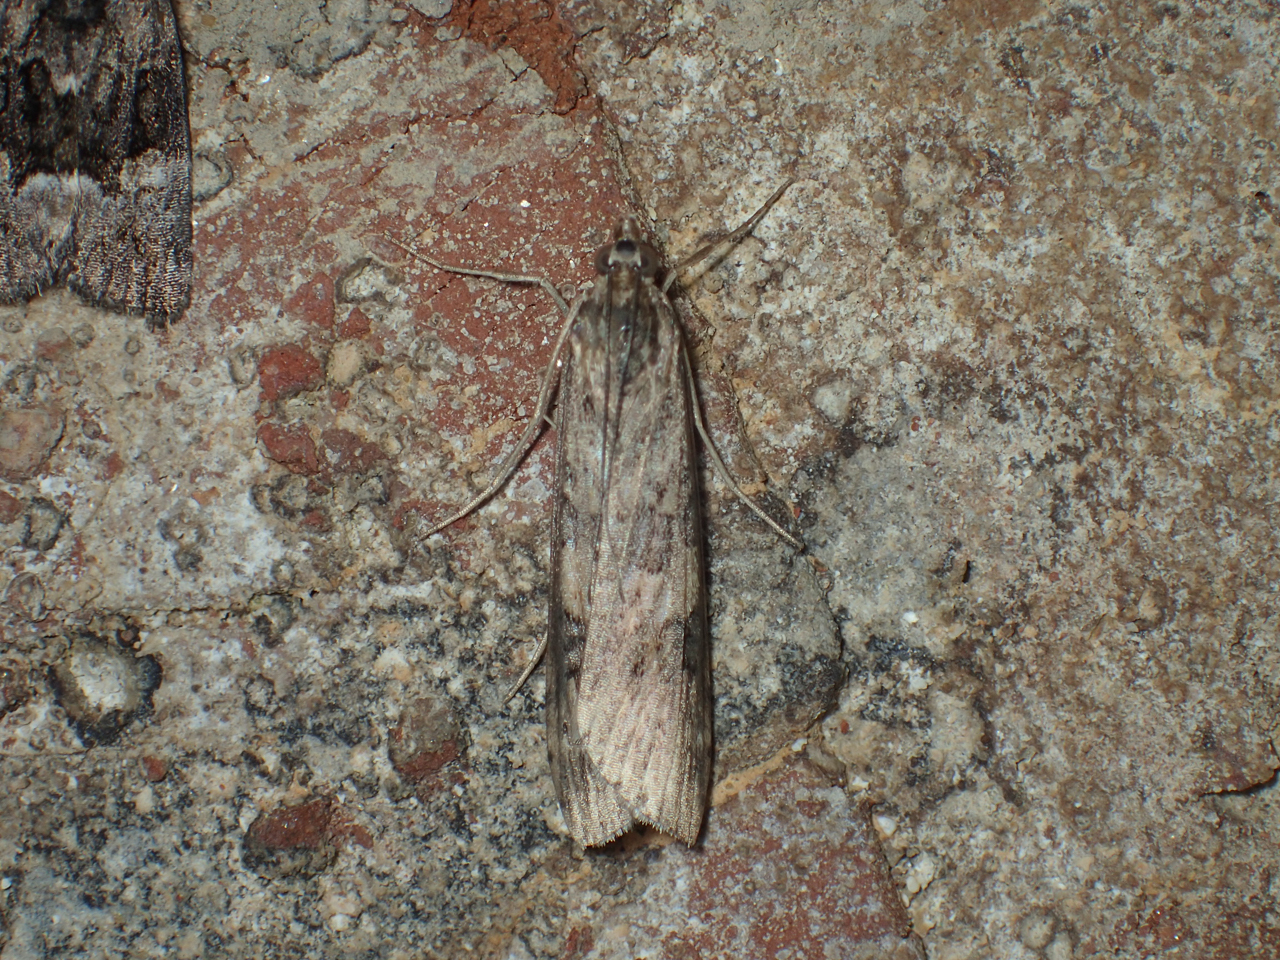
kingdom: Animalia
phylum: Arthropoda
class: Insecta
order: Lepidoptera
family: Crambidae
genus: Nomophila
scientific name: Nomophila nearctica
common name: American rush veneer
